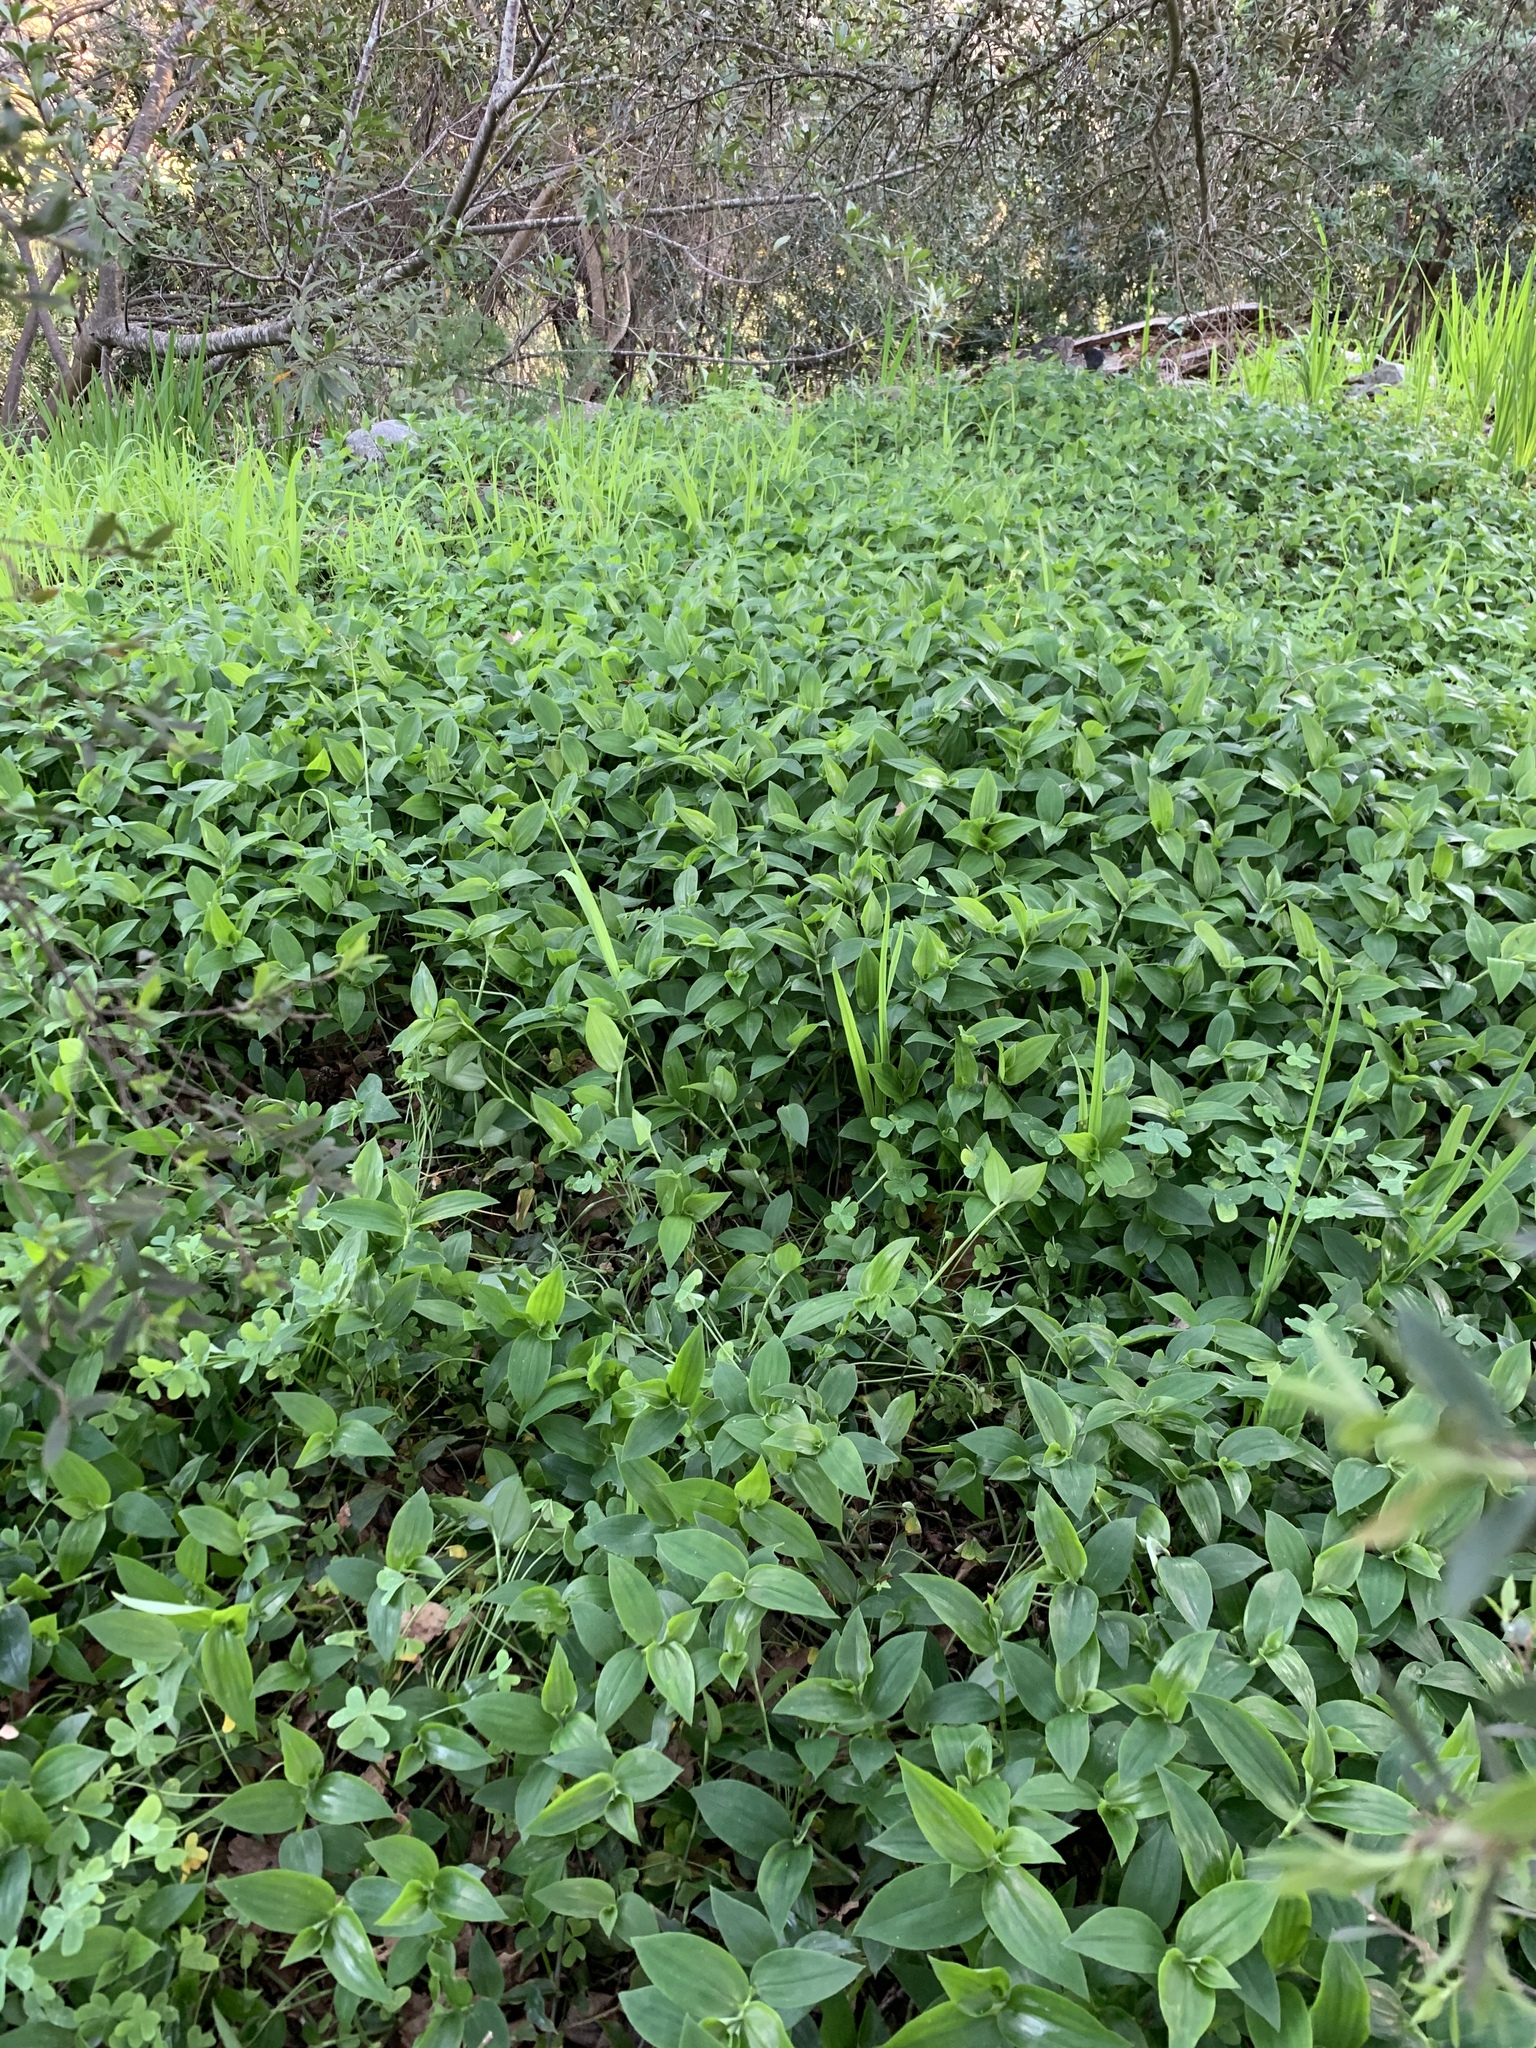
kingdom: Plantae
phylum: Tracheophyta
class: Liliopsida
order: Commelinales
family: Commelinaceae
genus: Tradescantia
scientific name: Tradescantia fluminensis
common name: Wandering-jew
